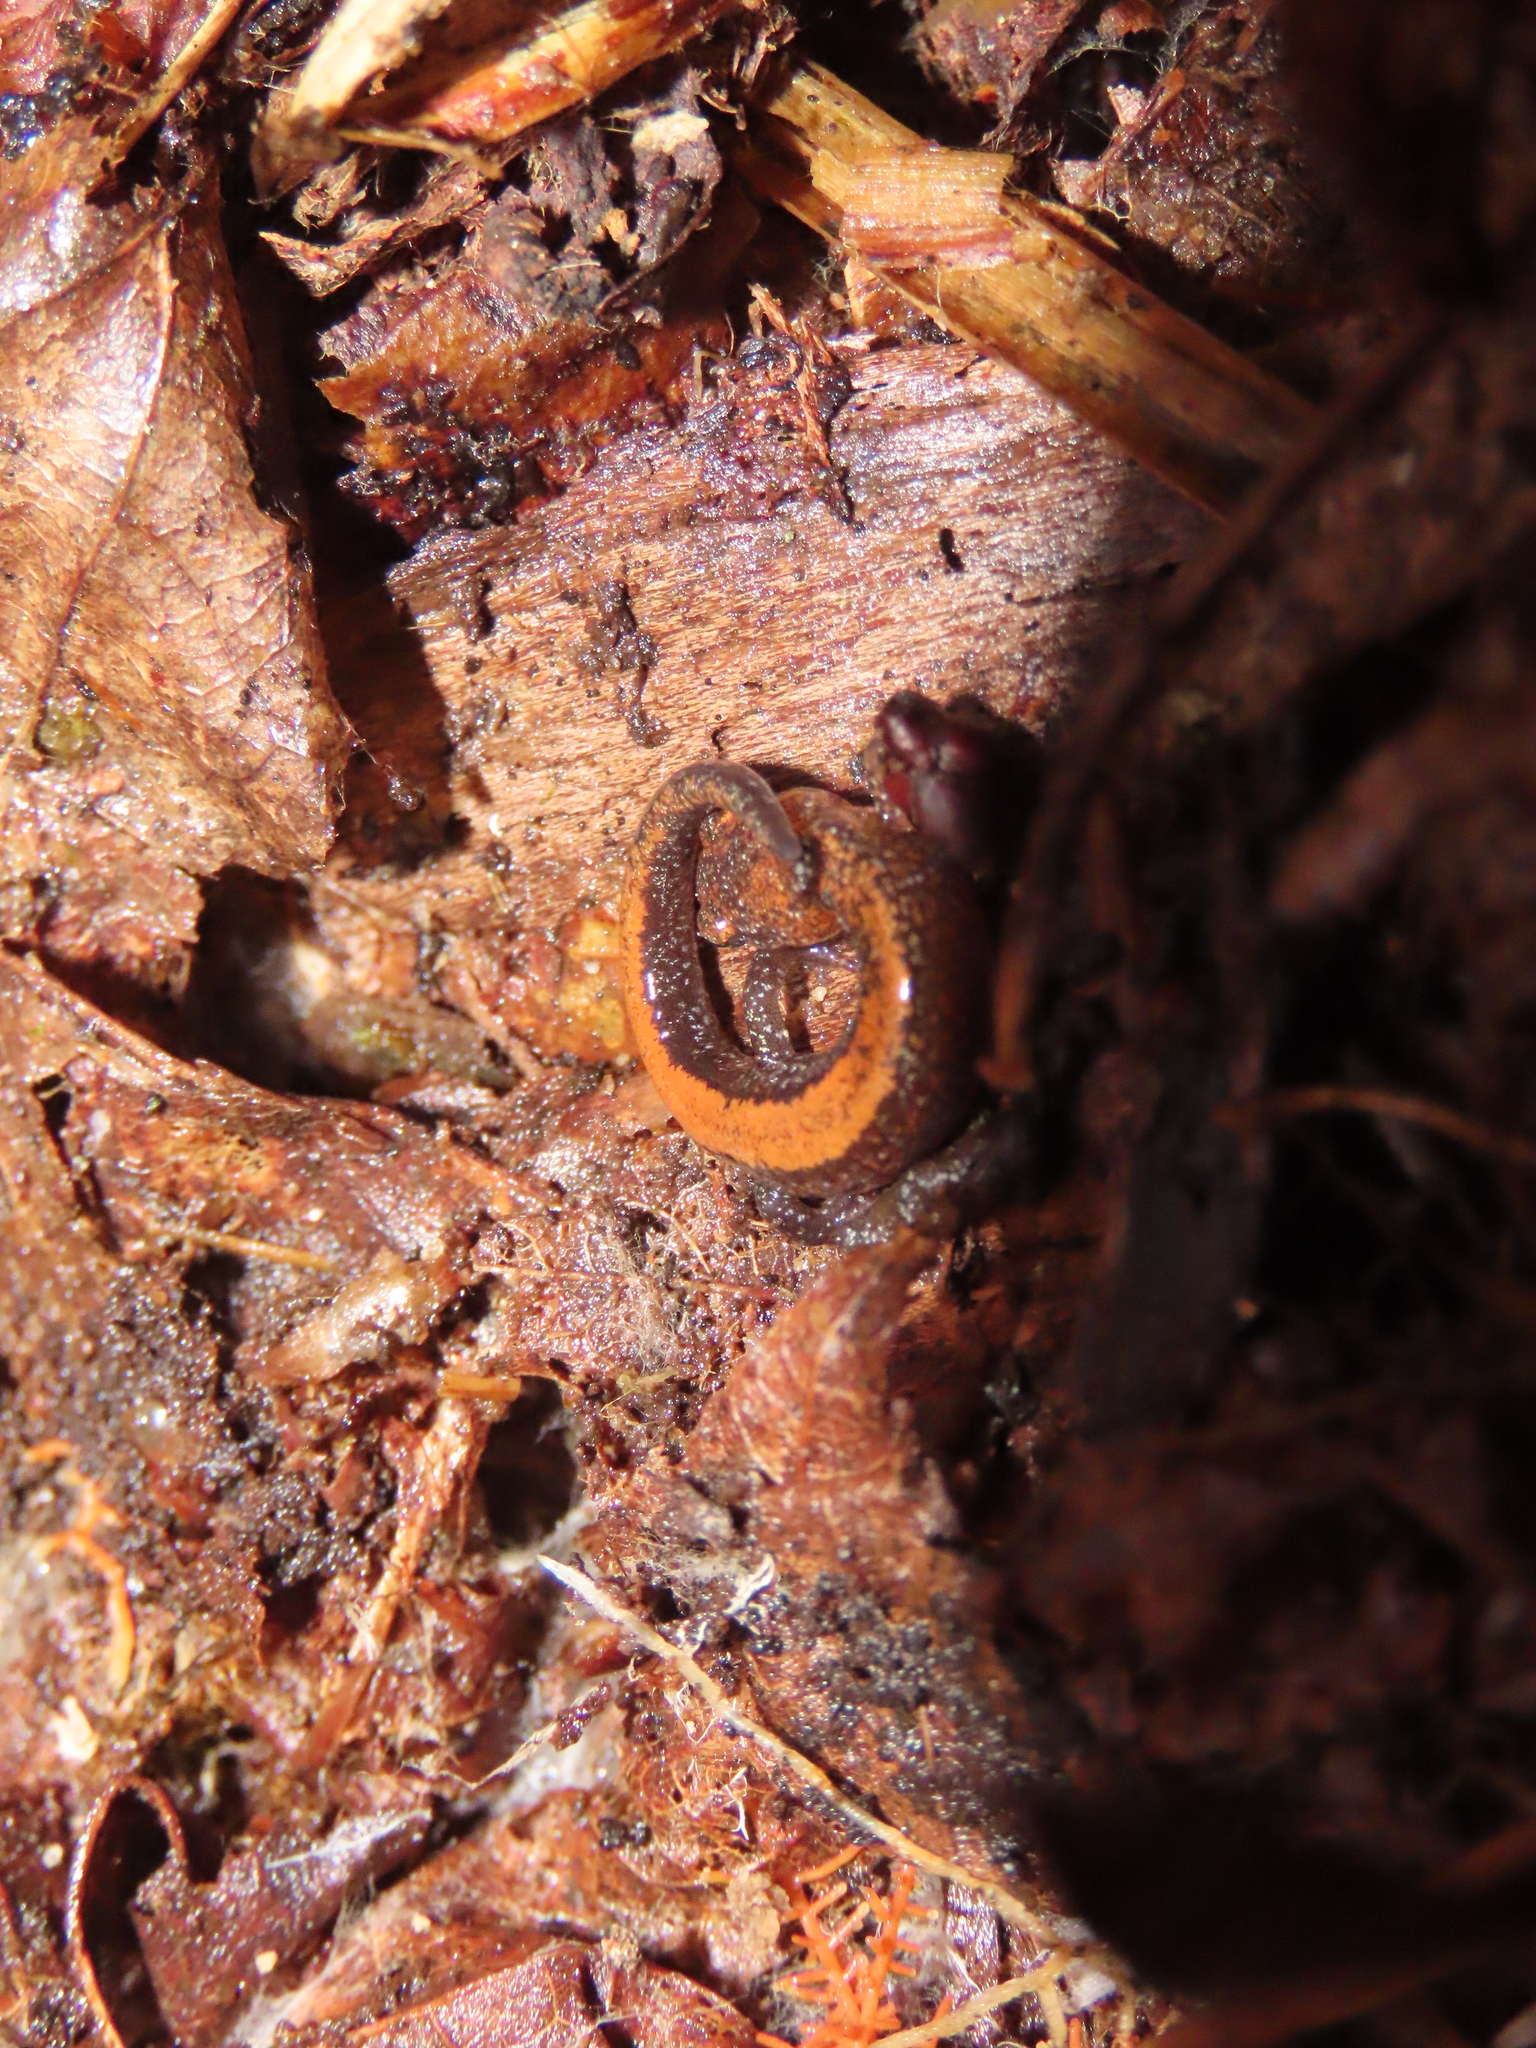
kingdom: Animalia
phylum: Chordata
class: Amphibia
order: Caudata
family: Plethodontidae
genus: Plethodon
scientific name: Plethodon cinereus
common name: Redback salamander
